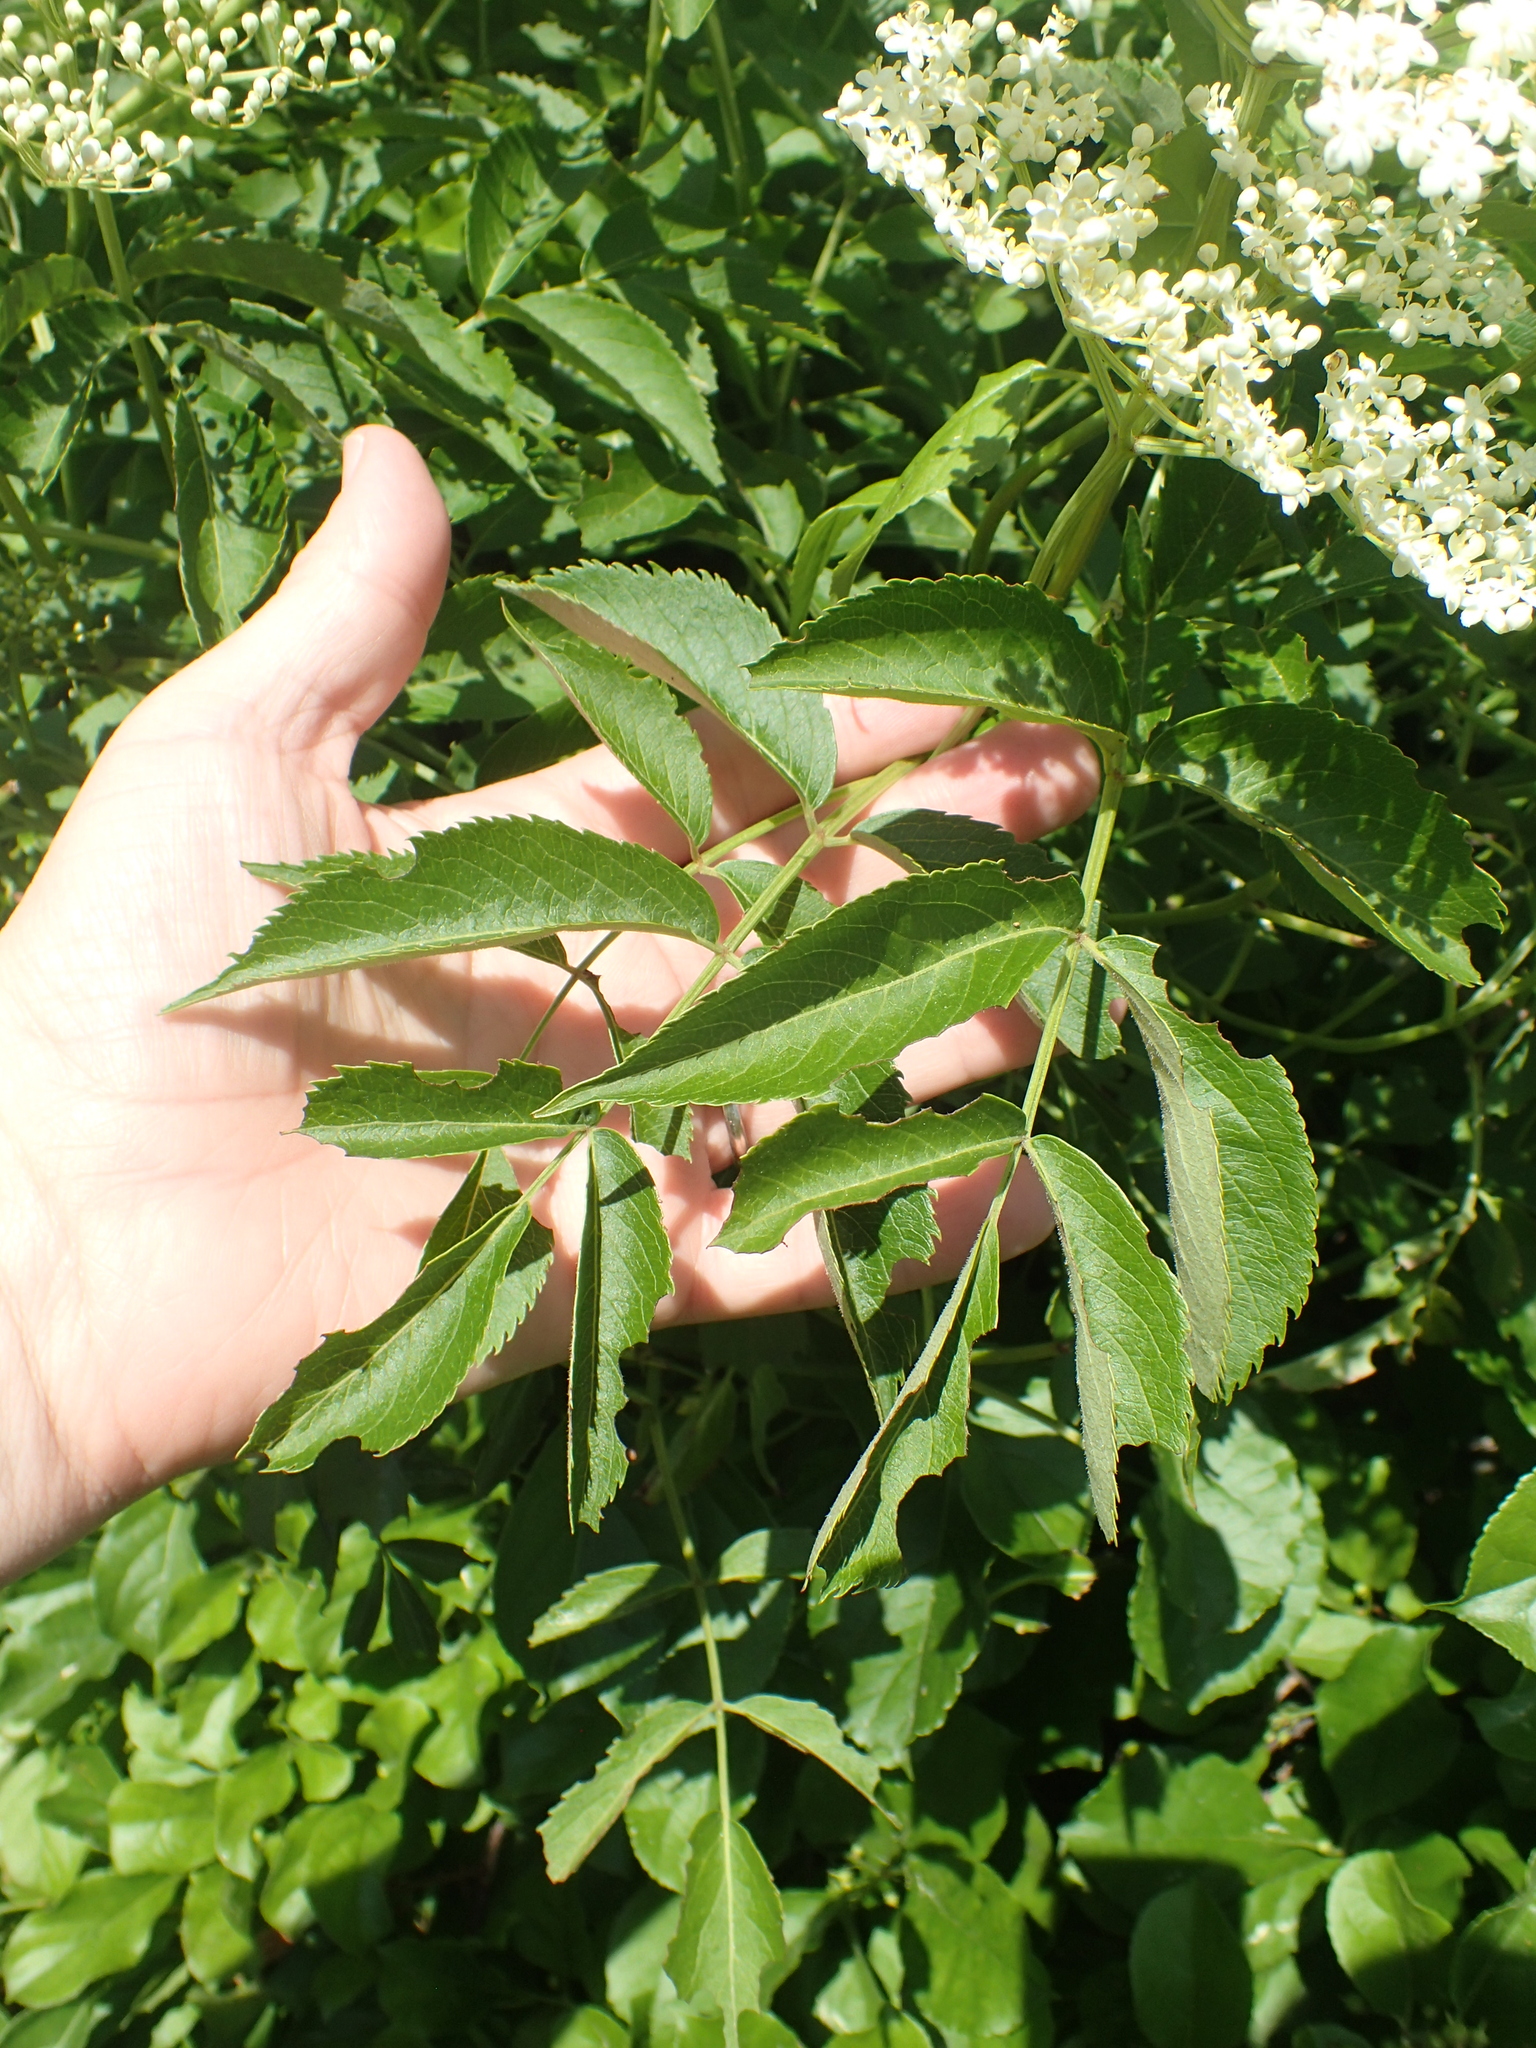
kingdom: Plantae
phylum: Tracheophyta
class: Magnoliopsida
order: Dipsacales
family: Viburnaceae
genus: Sambucus
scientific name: Sambucus canadensis
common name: American elder
